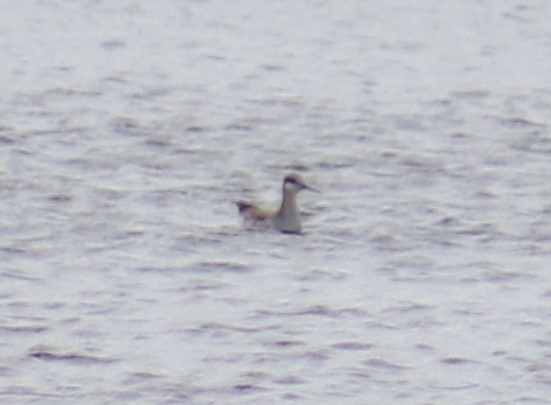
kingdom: Animalia
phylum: Chordata
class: Aves
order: Charadriiformes
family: Scolopacidae
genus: Phalaropus
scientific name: Phalaropus tricolor
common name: Wilson's phalarope
